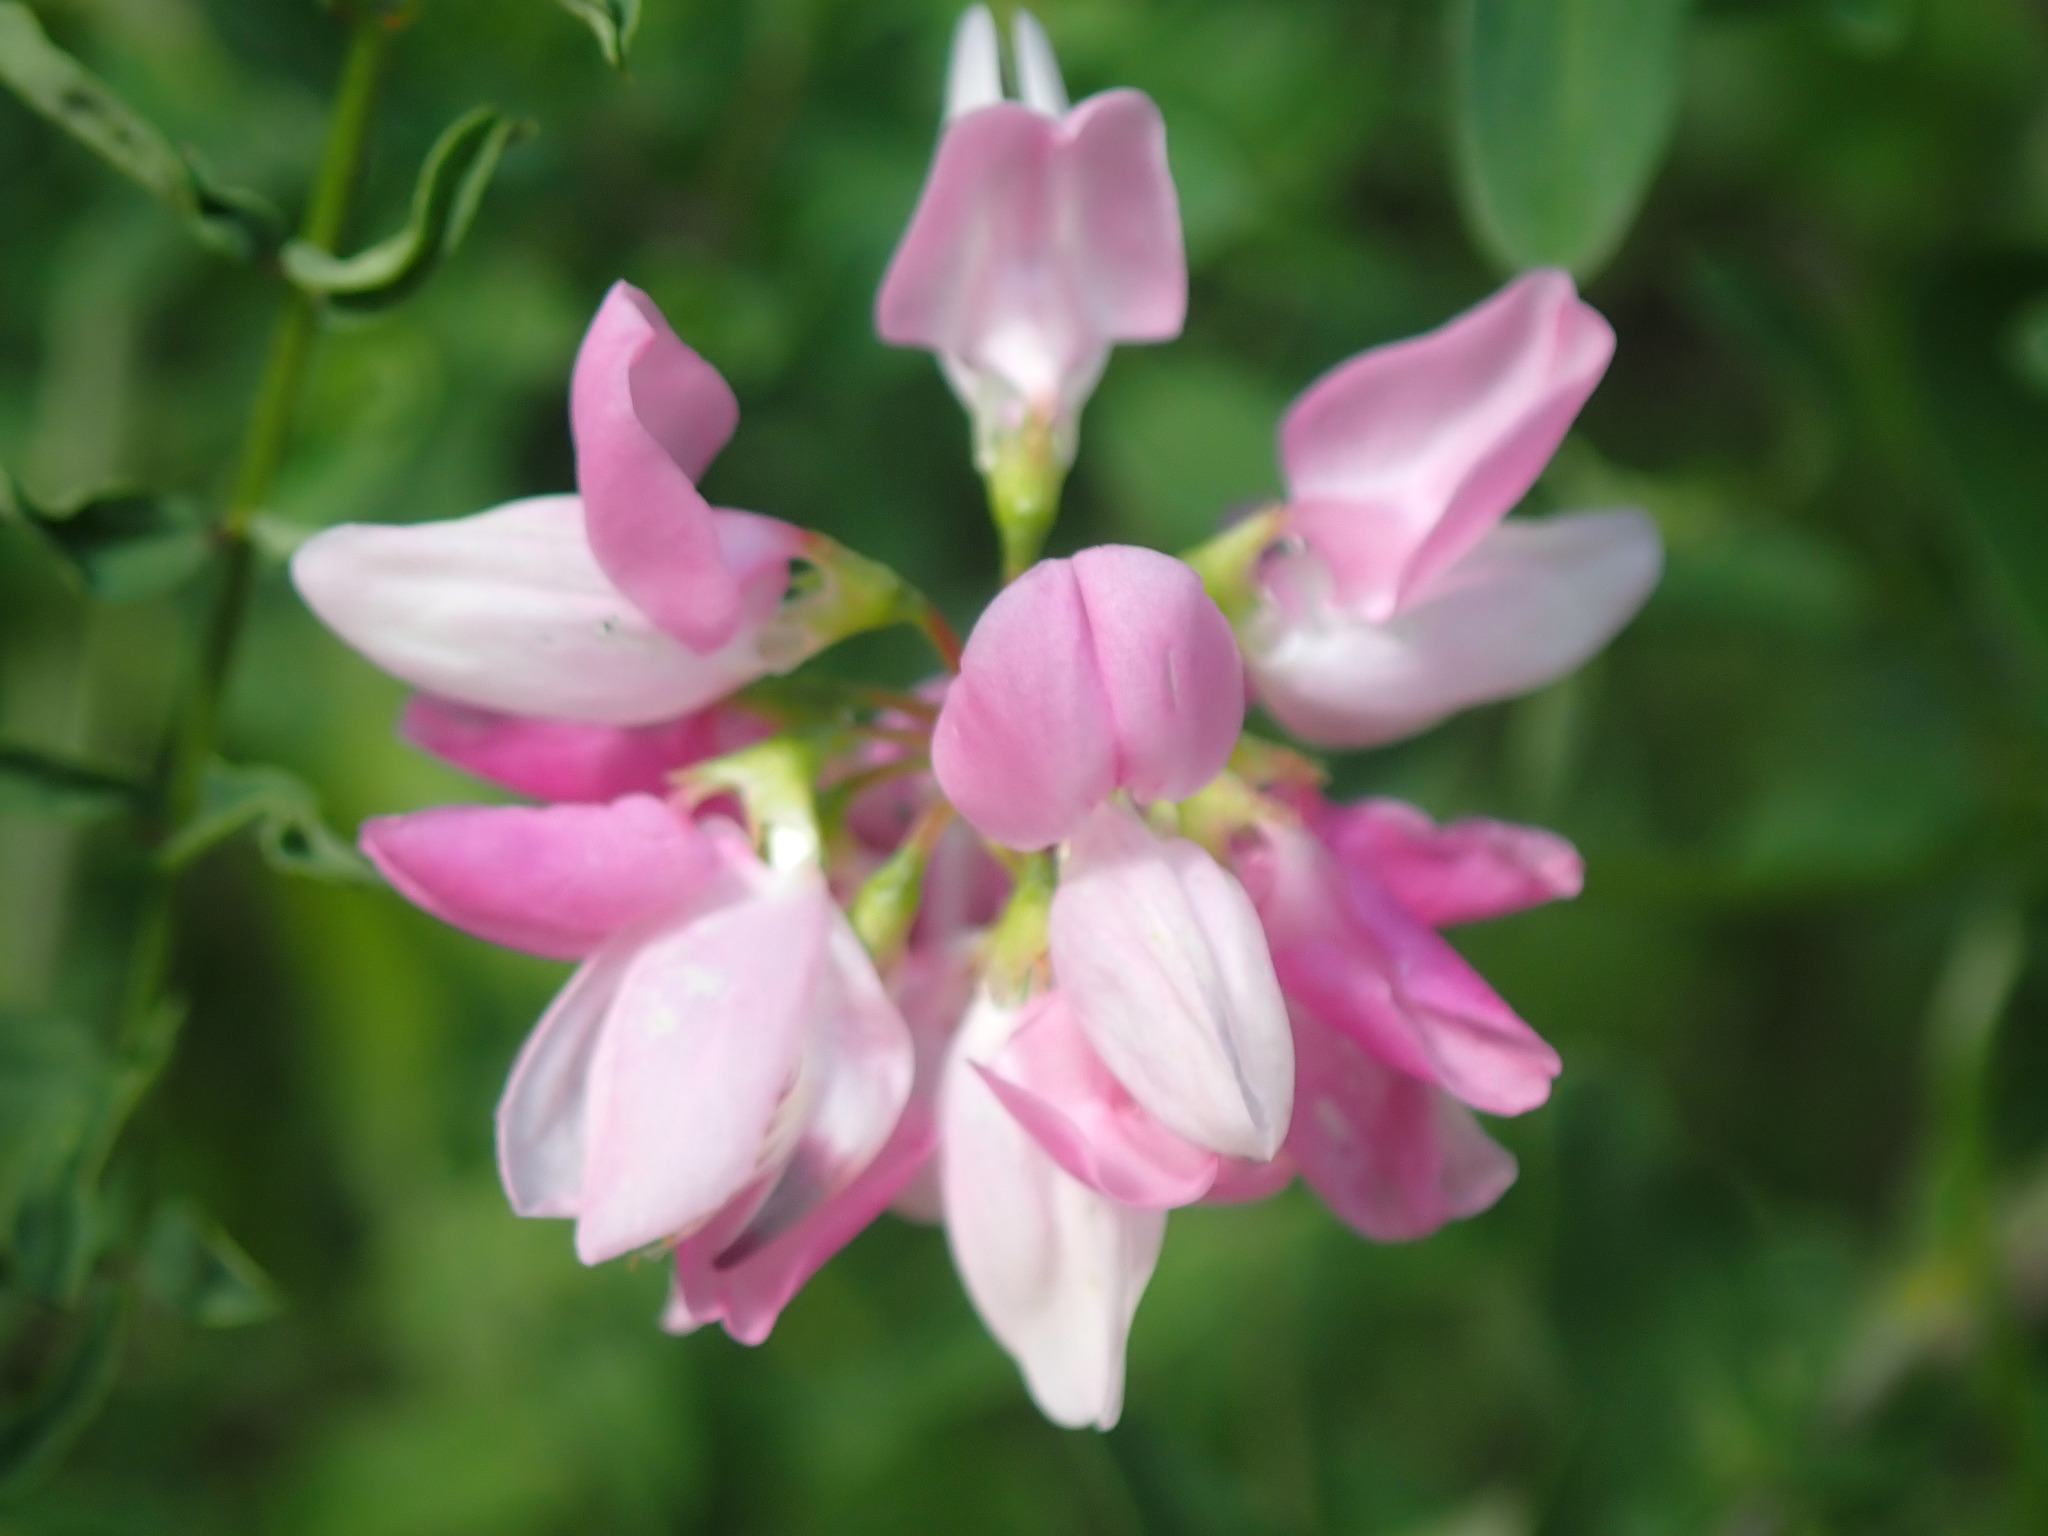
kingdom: Plantae
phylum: Tracheophyta
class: Magnoliopsida
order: Fabales
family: Fabaceae
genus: Coronilla
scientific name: Coronilla varia
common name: Crownvetch
